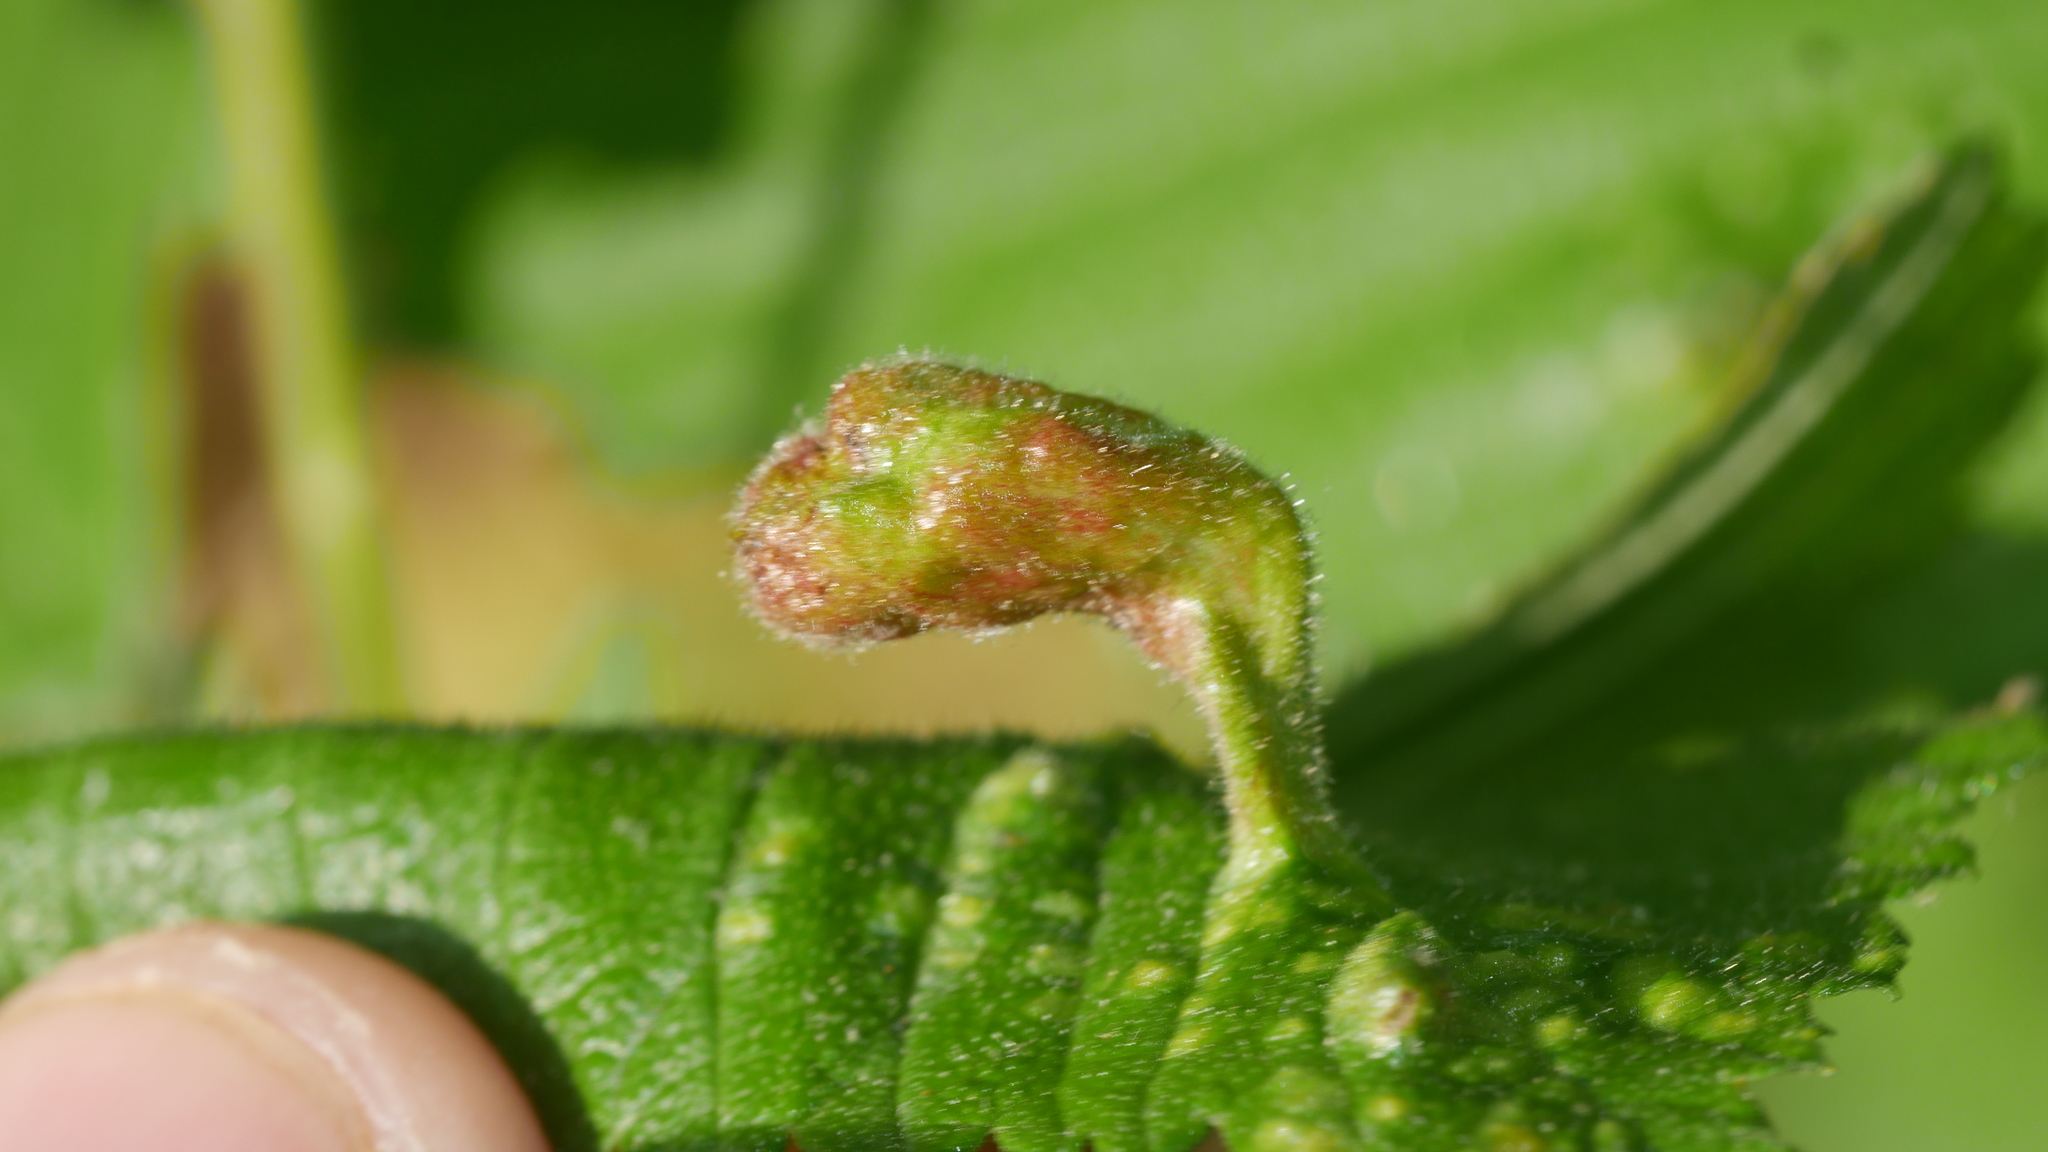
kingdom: Animalia
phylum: Arthropoda
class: Insecta
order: Hemiptera
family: Aphididae
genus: Tetraneura
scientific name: Tetraneura nigriabdominalis
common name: Aphid
